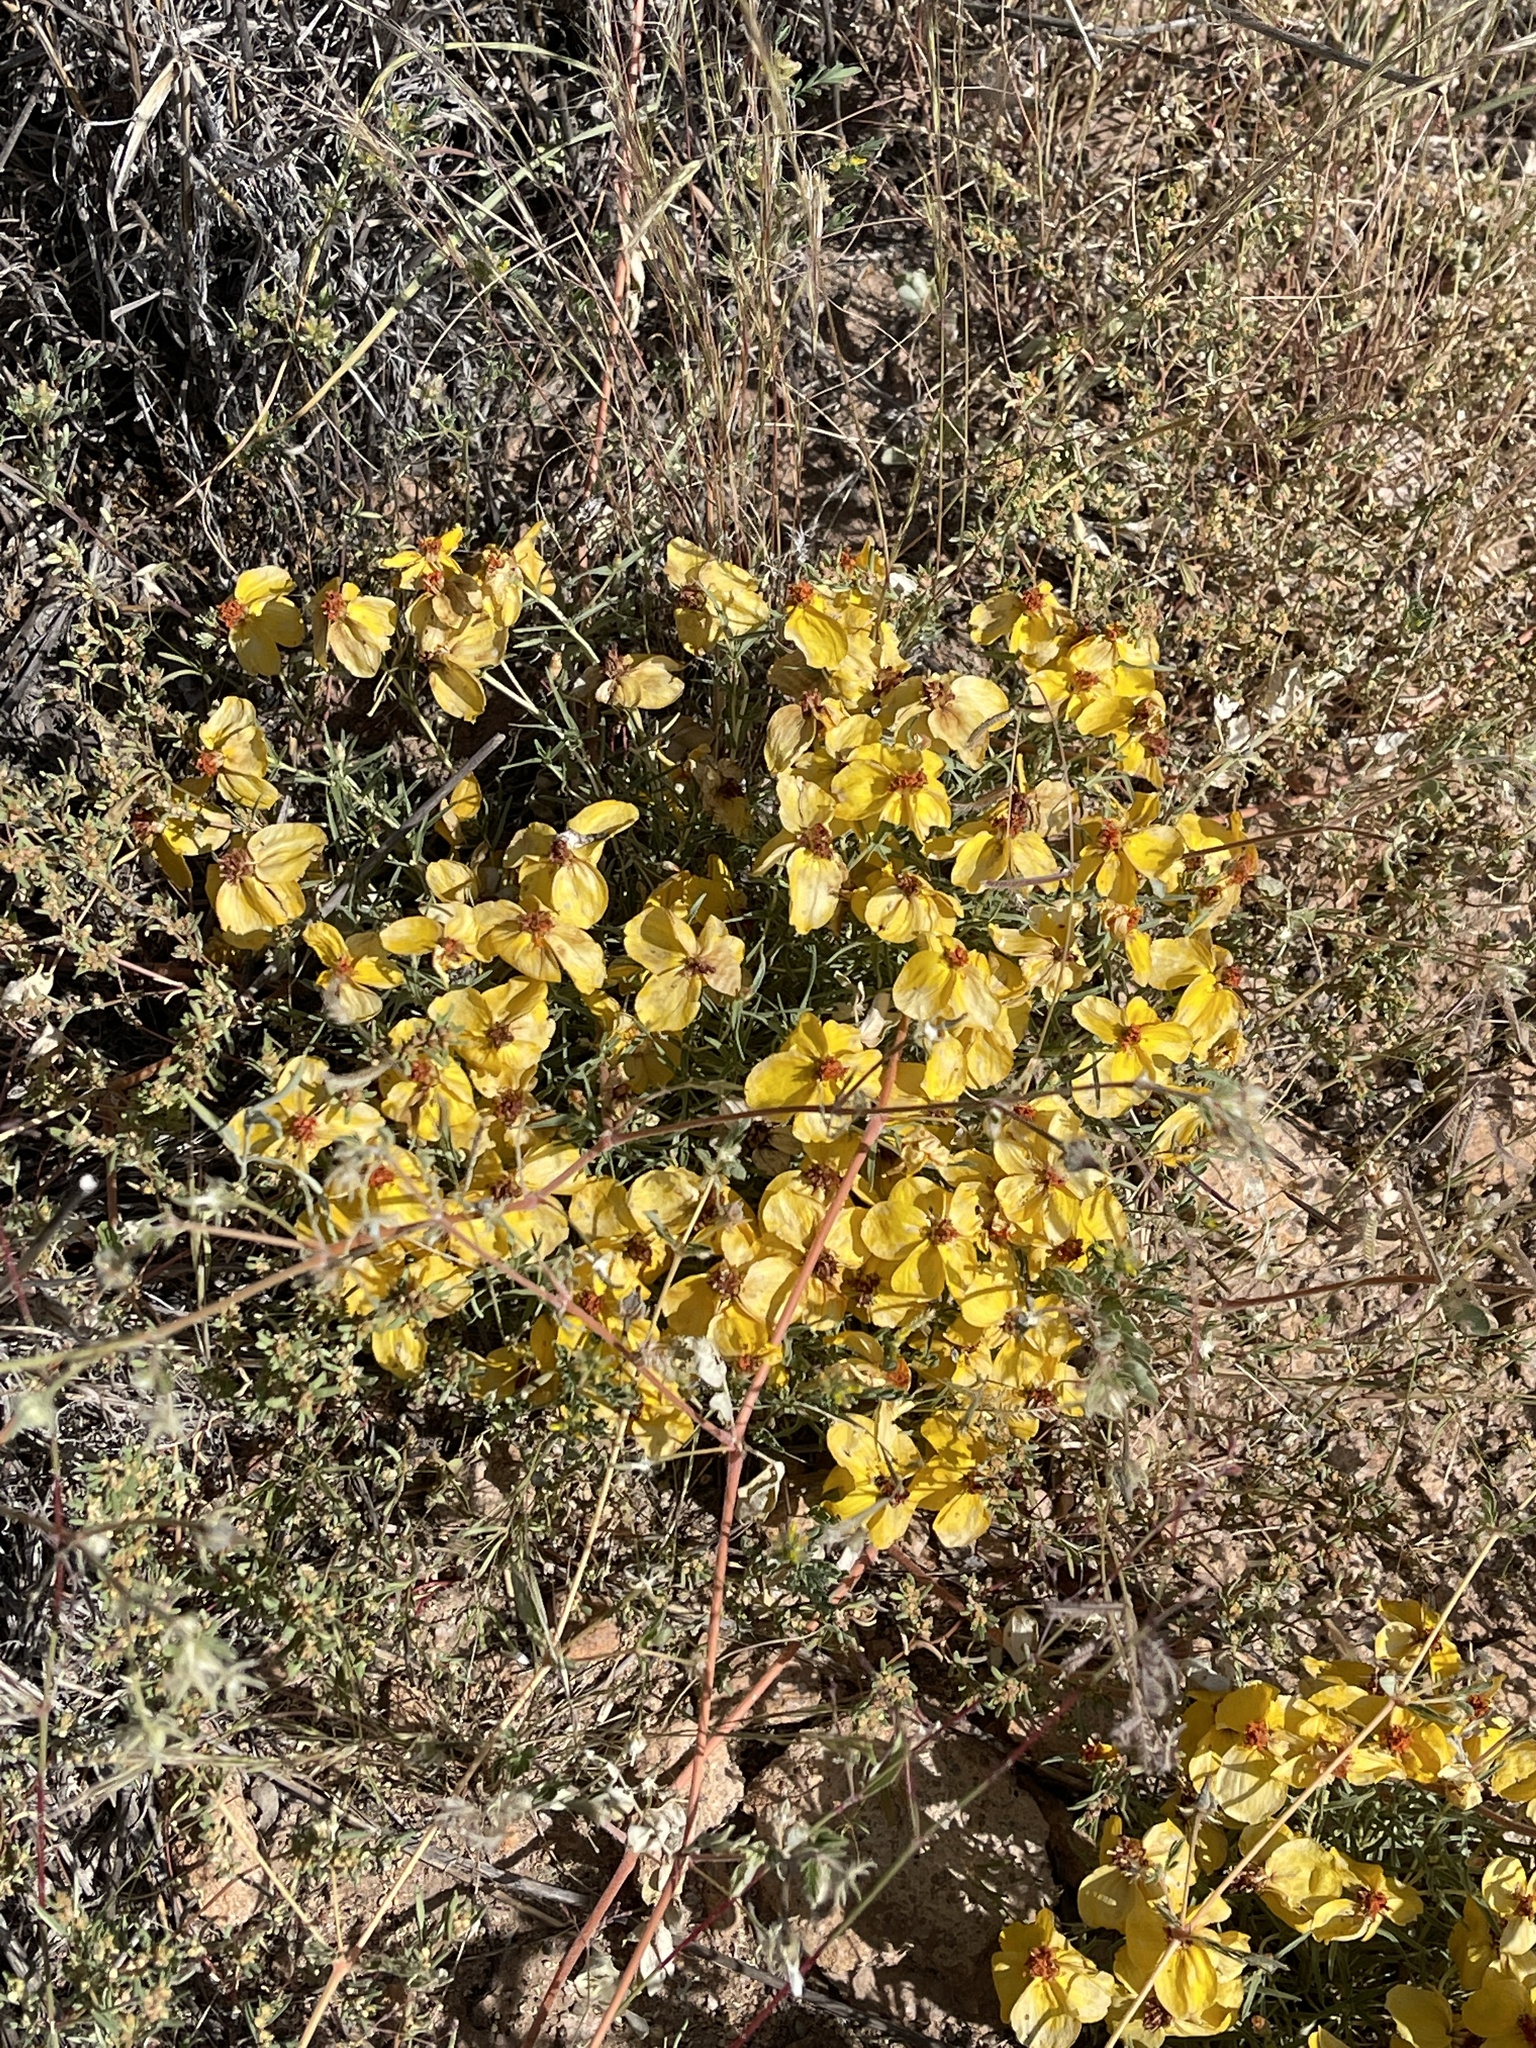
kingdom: Plantae
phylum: Tracheophyta
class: Magnoliopsida
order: Asterales
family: Asteraceae
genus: Zinnia
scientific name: Zinnia grandiflora
